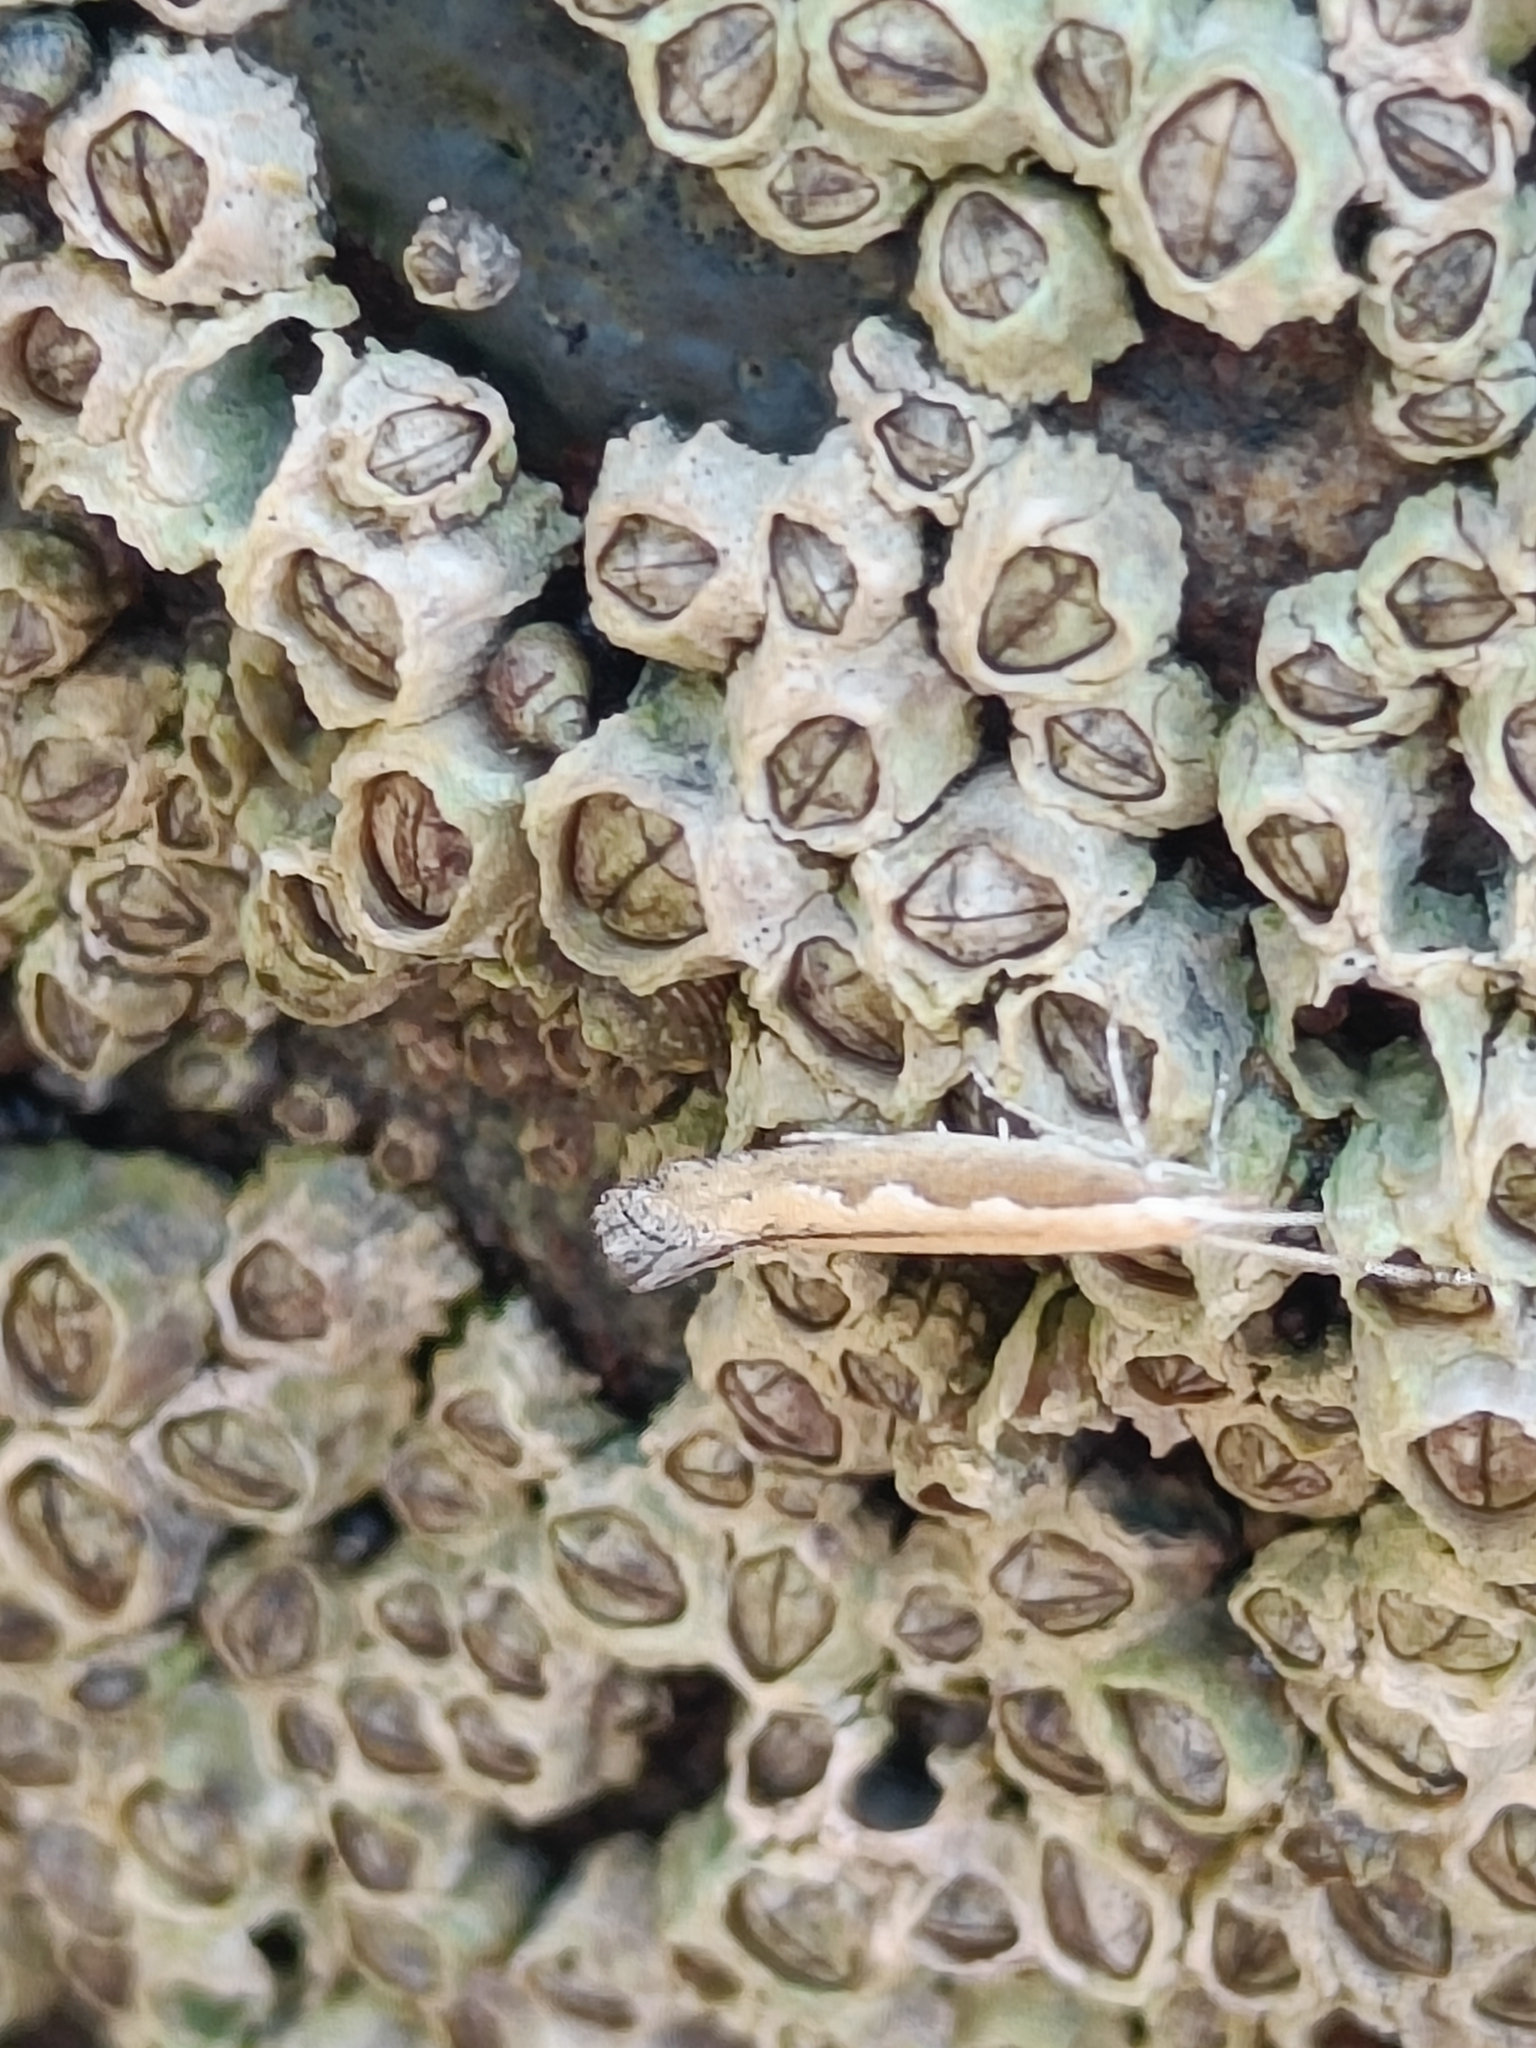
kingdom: Animalia
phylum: Arthropoda
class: Insecta
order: Lepidoptera
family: Plutellidae
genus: Plutella
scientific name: Plutella xylostella
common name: Diamond-back moth
